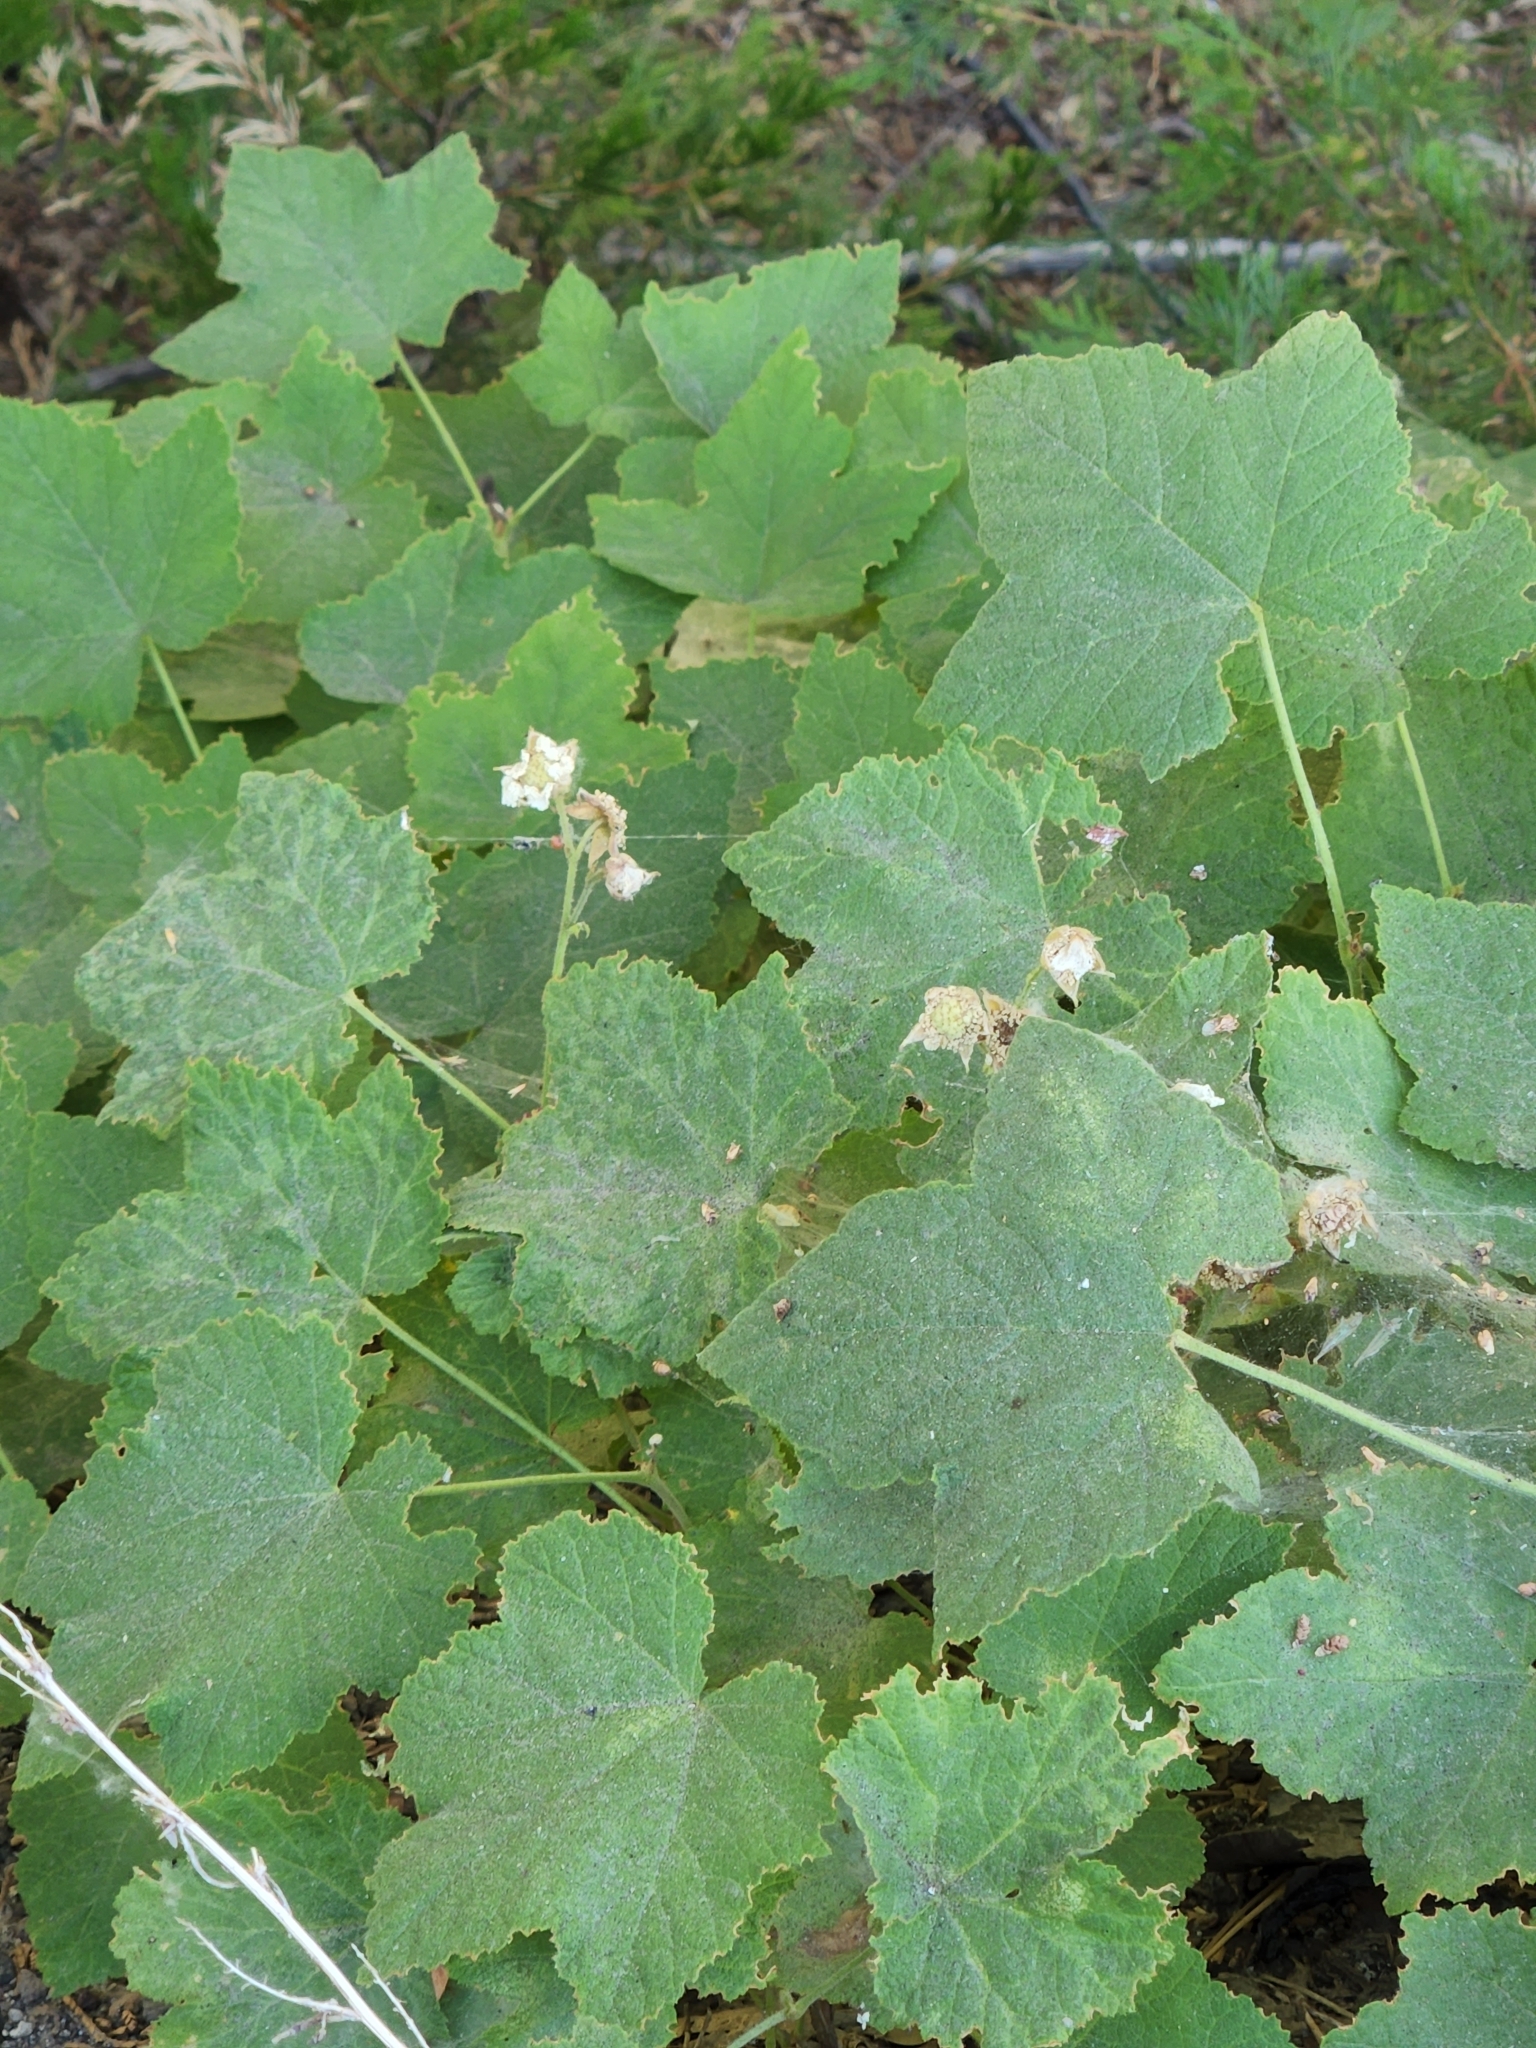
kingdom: Plantae
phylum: Tracheophyta
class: Magnoliopsida
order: Rosales
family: Rosaceae
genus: Rubus
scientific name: Rubus parviflorus
